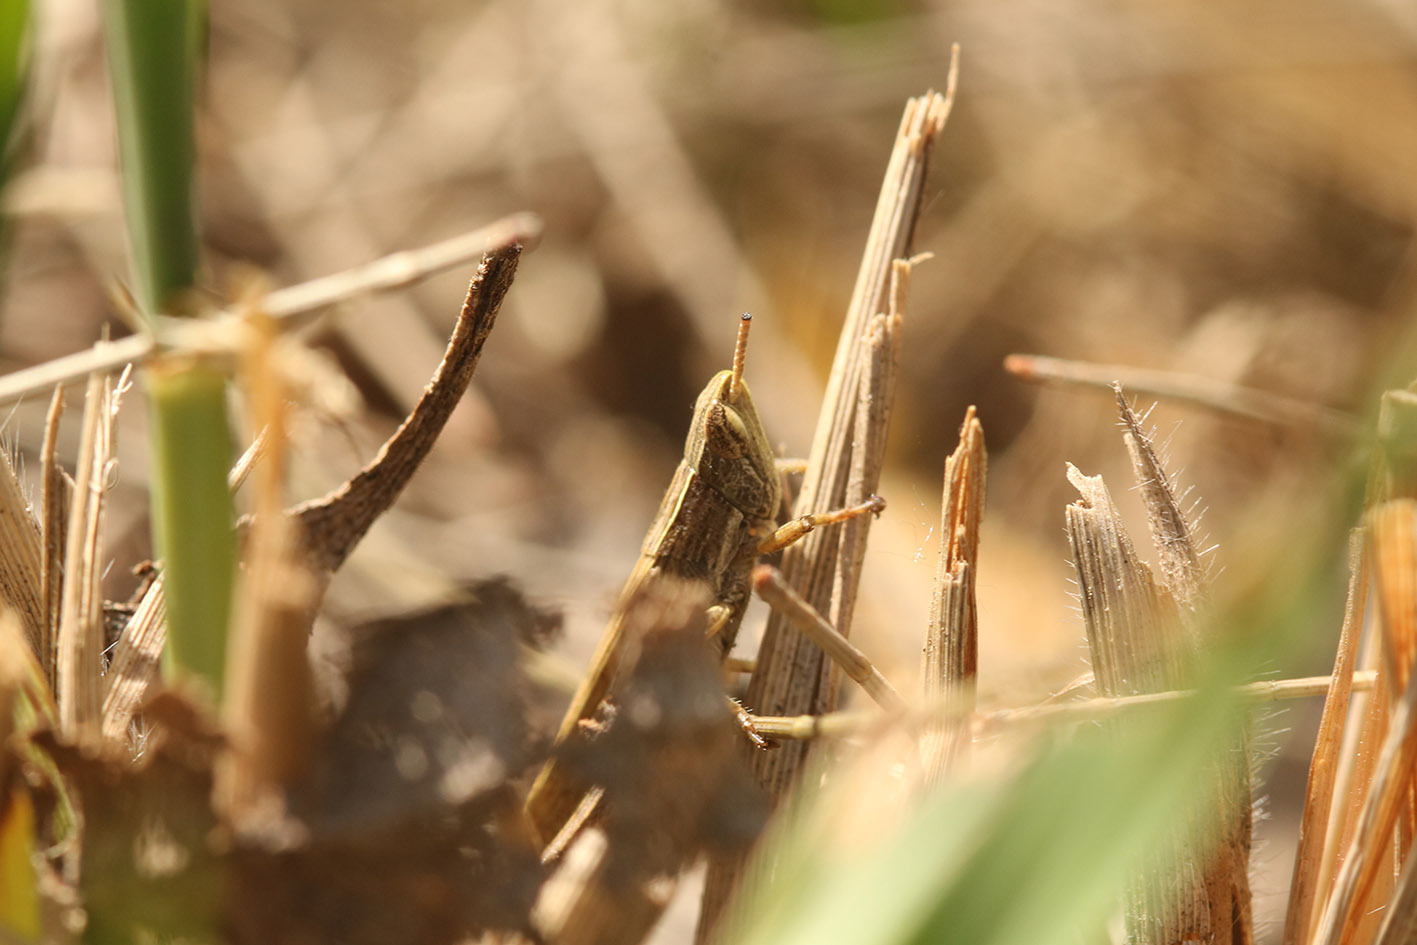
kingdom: Animalia
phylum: Arthropoda
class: Insecta
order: Orthoptera
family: Acrididae
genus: Laplatacris
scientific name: Laplatacris dispar
